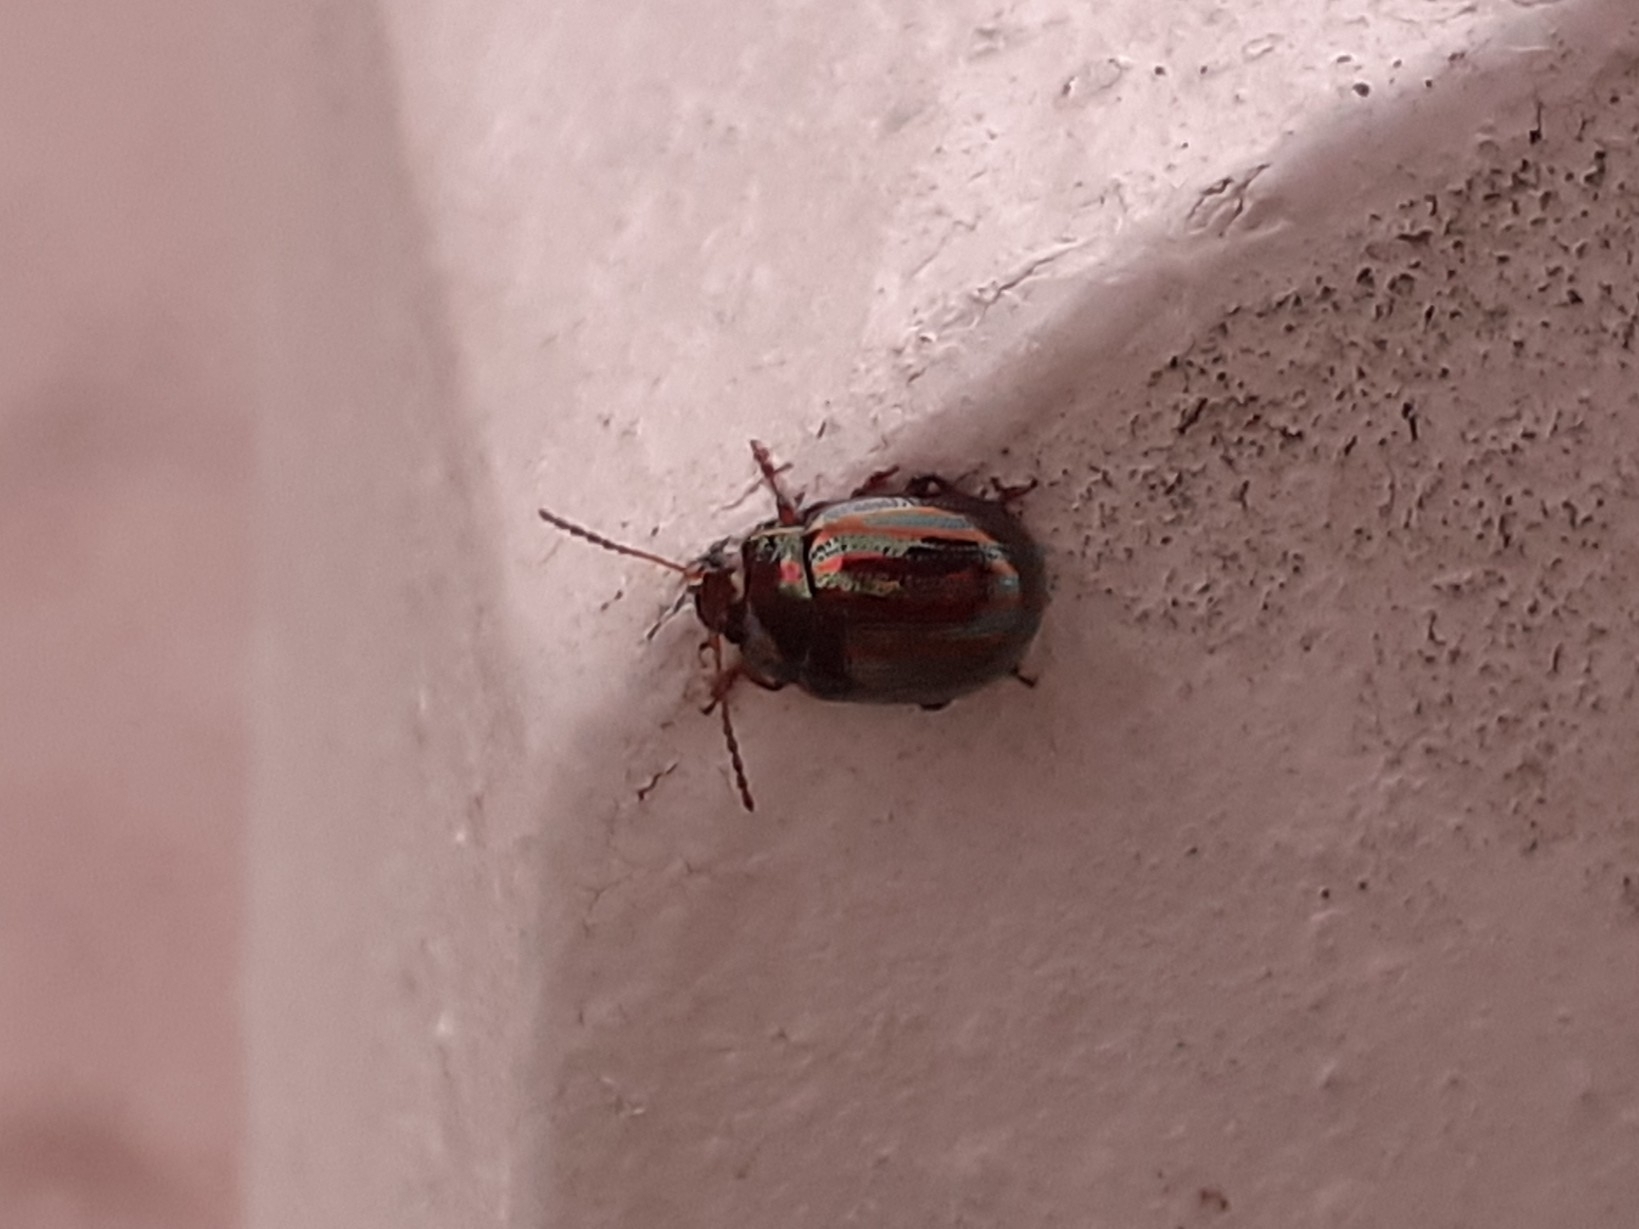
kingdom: Animalia
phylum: Arthropoda
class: Insecta
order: Coleoptera
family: Chrysomelidae
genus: Chrysolina
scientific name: Chrysolina americana
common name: Rosemary beetle
